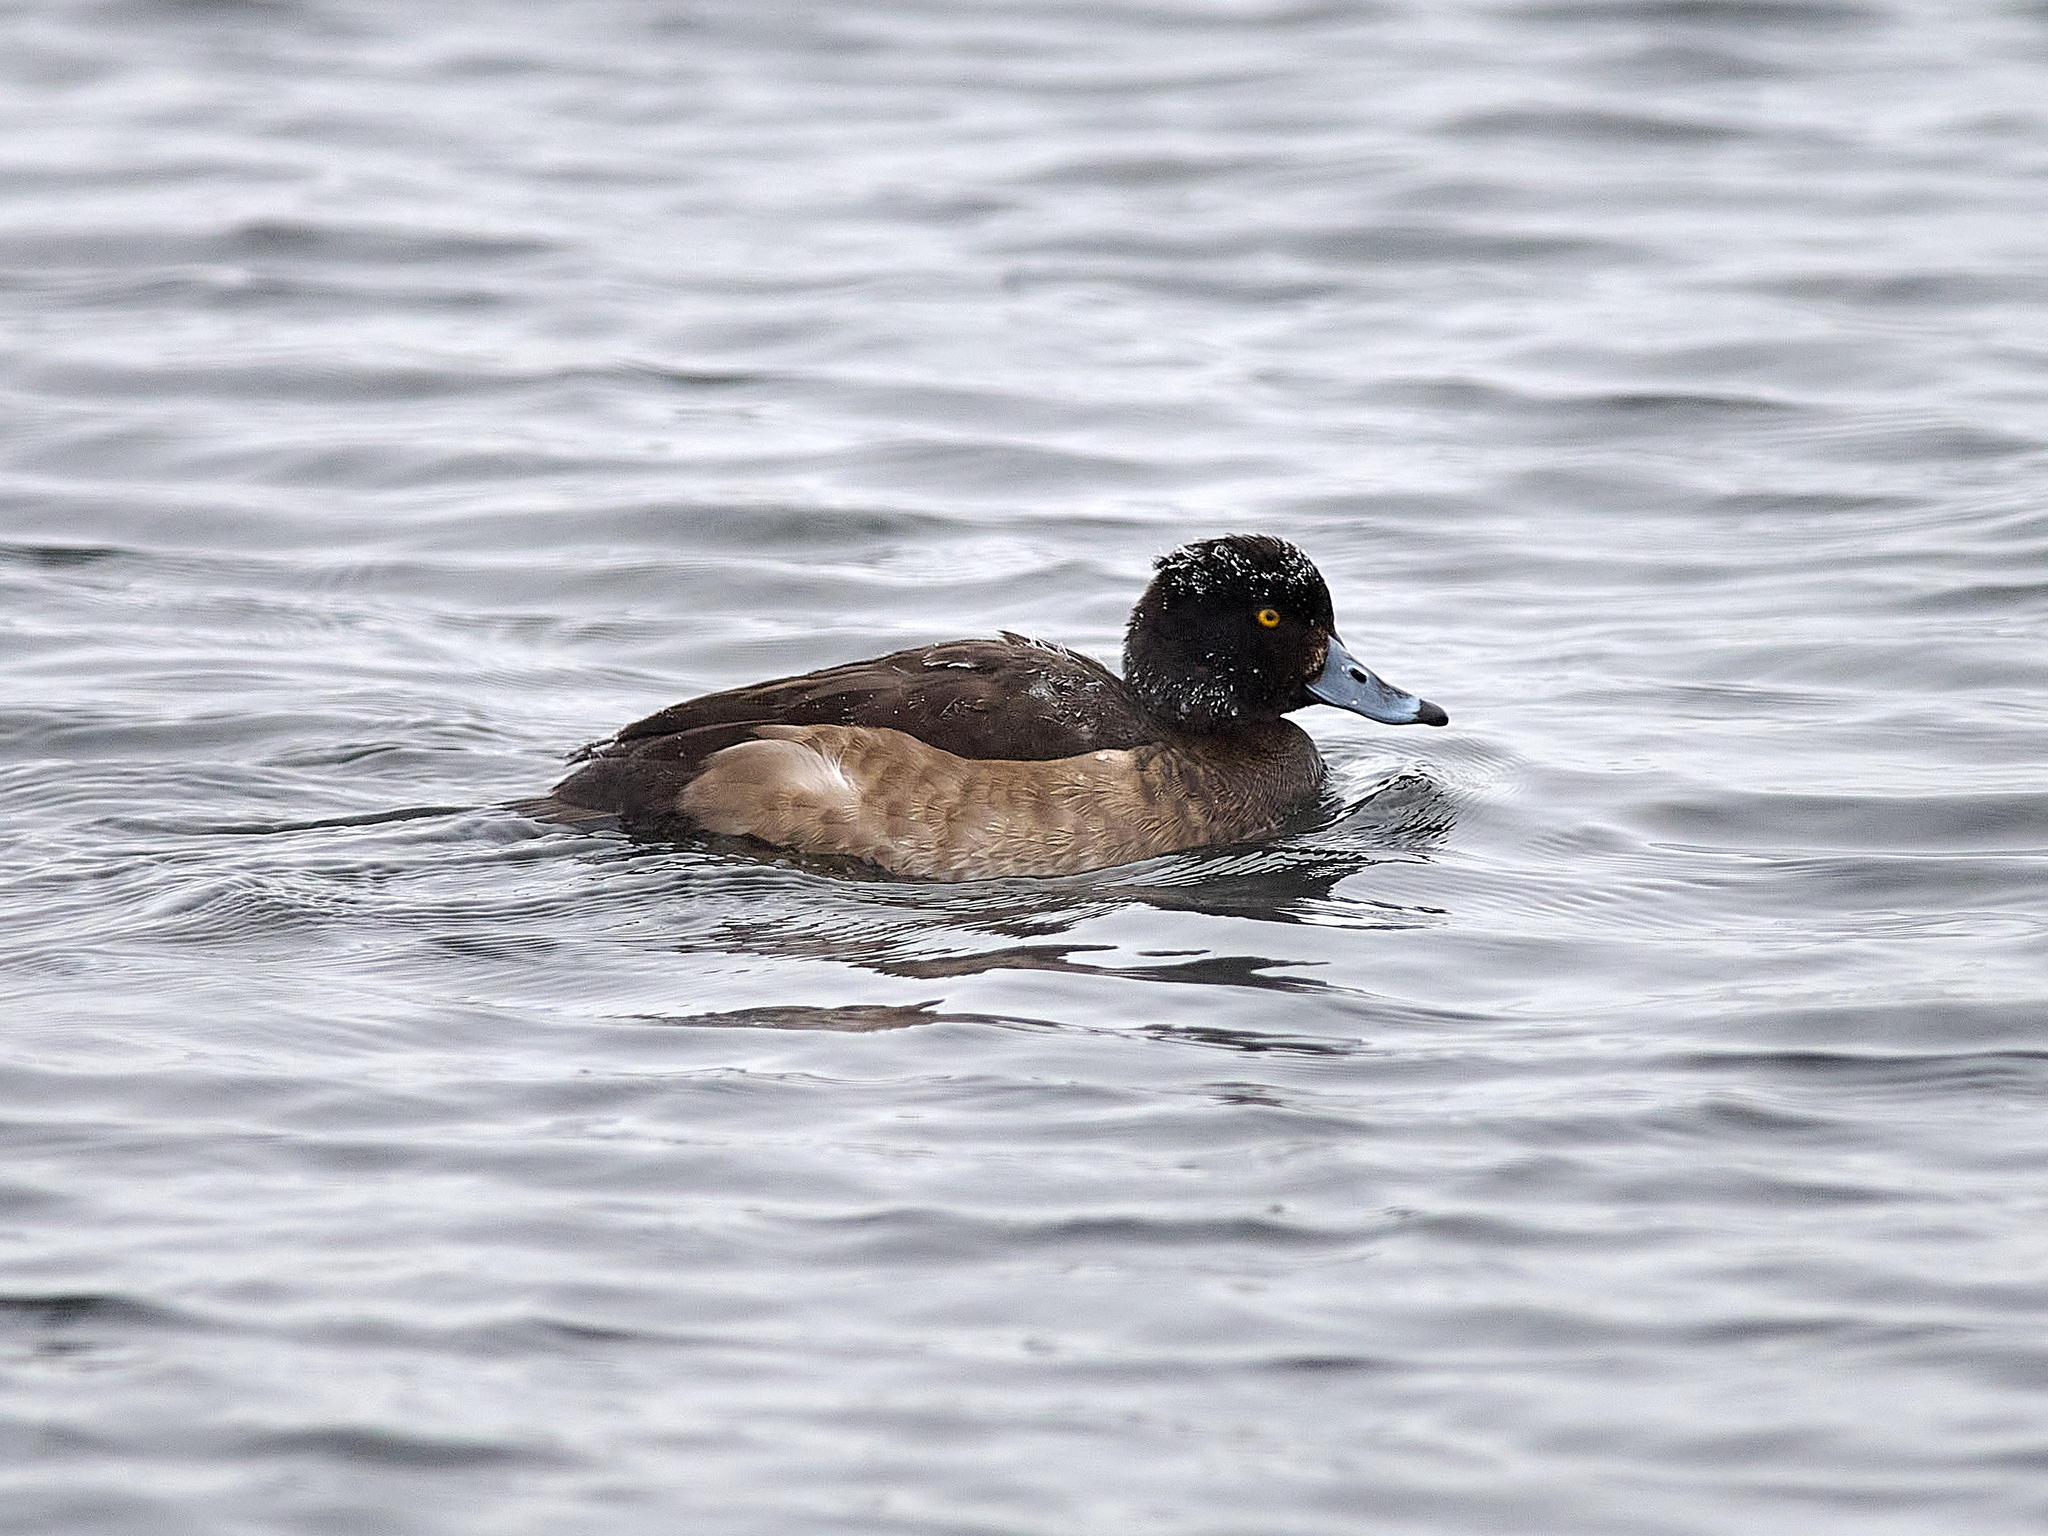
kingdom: Animalia
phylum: Chordata
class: Aves
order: Anseriformes
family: Anatidae
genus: Aythya
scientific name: Aythya marila
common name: Greater scaup
